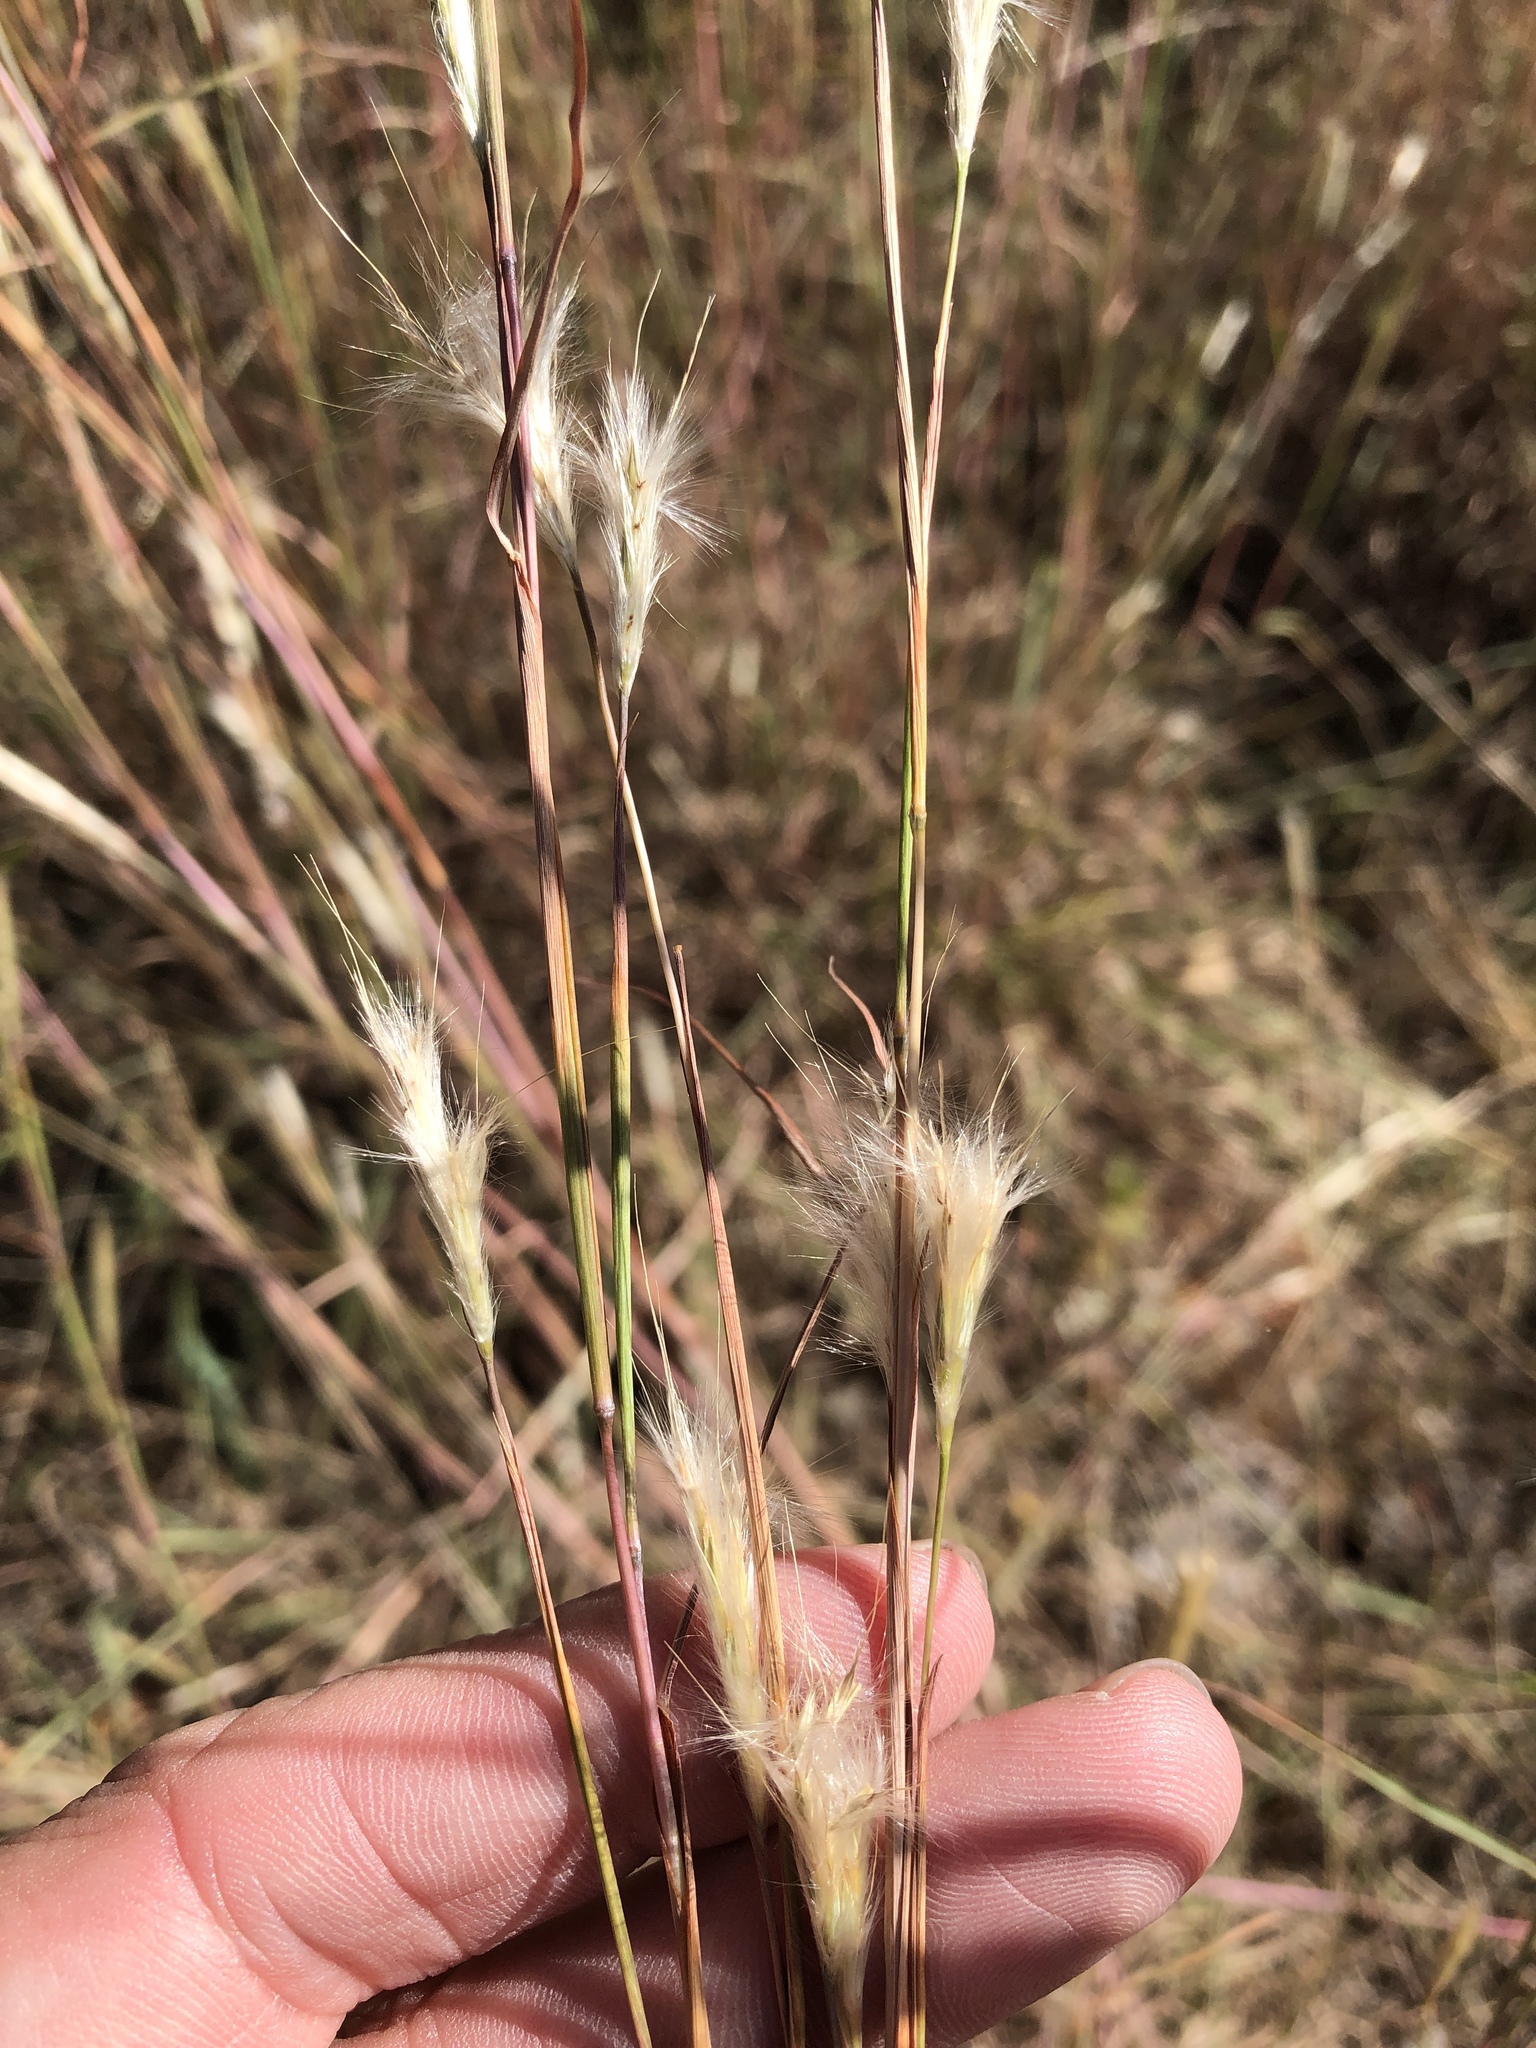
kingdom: Plantae
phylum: Tracheophyta
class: Liliopsida
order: Poales
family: Poaceae
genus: Andropogon
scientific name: Andropogon ternarius
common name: Split bluestem
